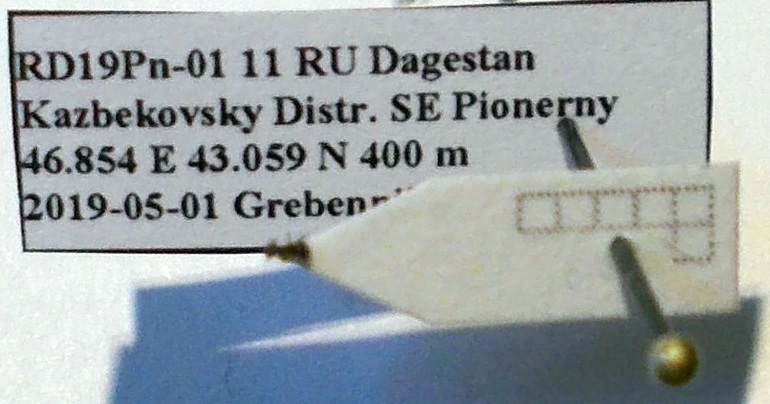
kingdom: Animalia
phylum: Arthropoda
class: Insecta
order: Hymenoptera
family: Formicidae
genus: Plagiolepis
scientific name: Plagiolepis pallescens
